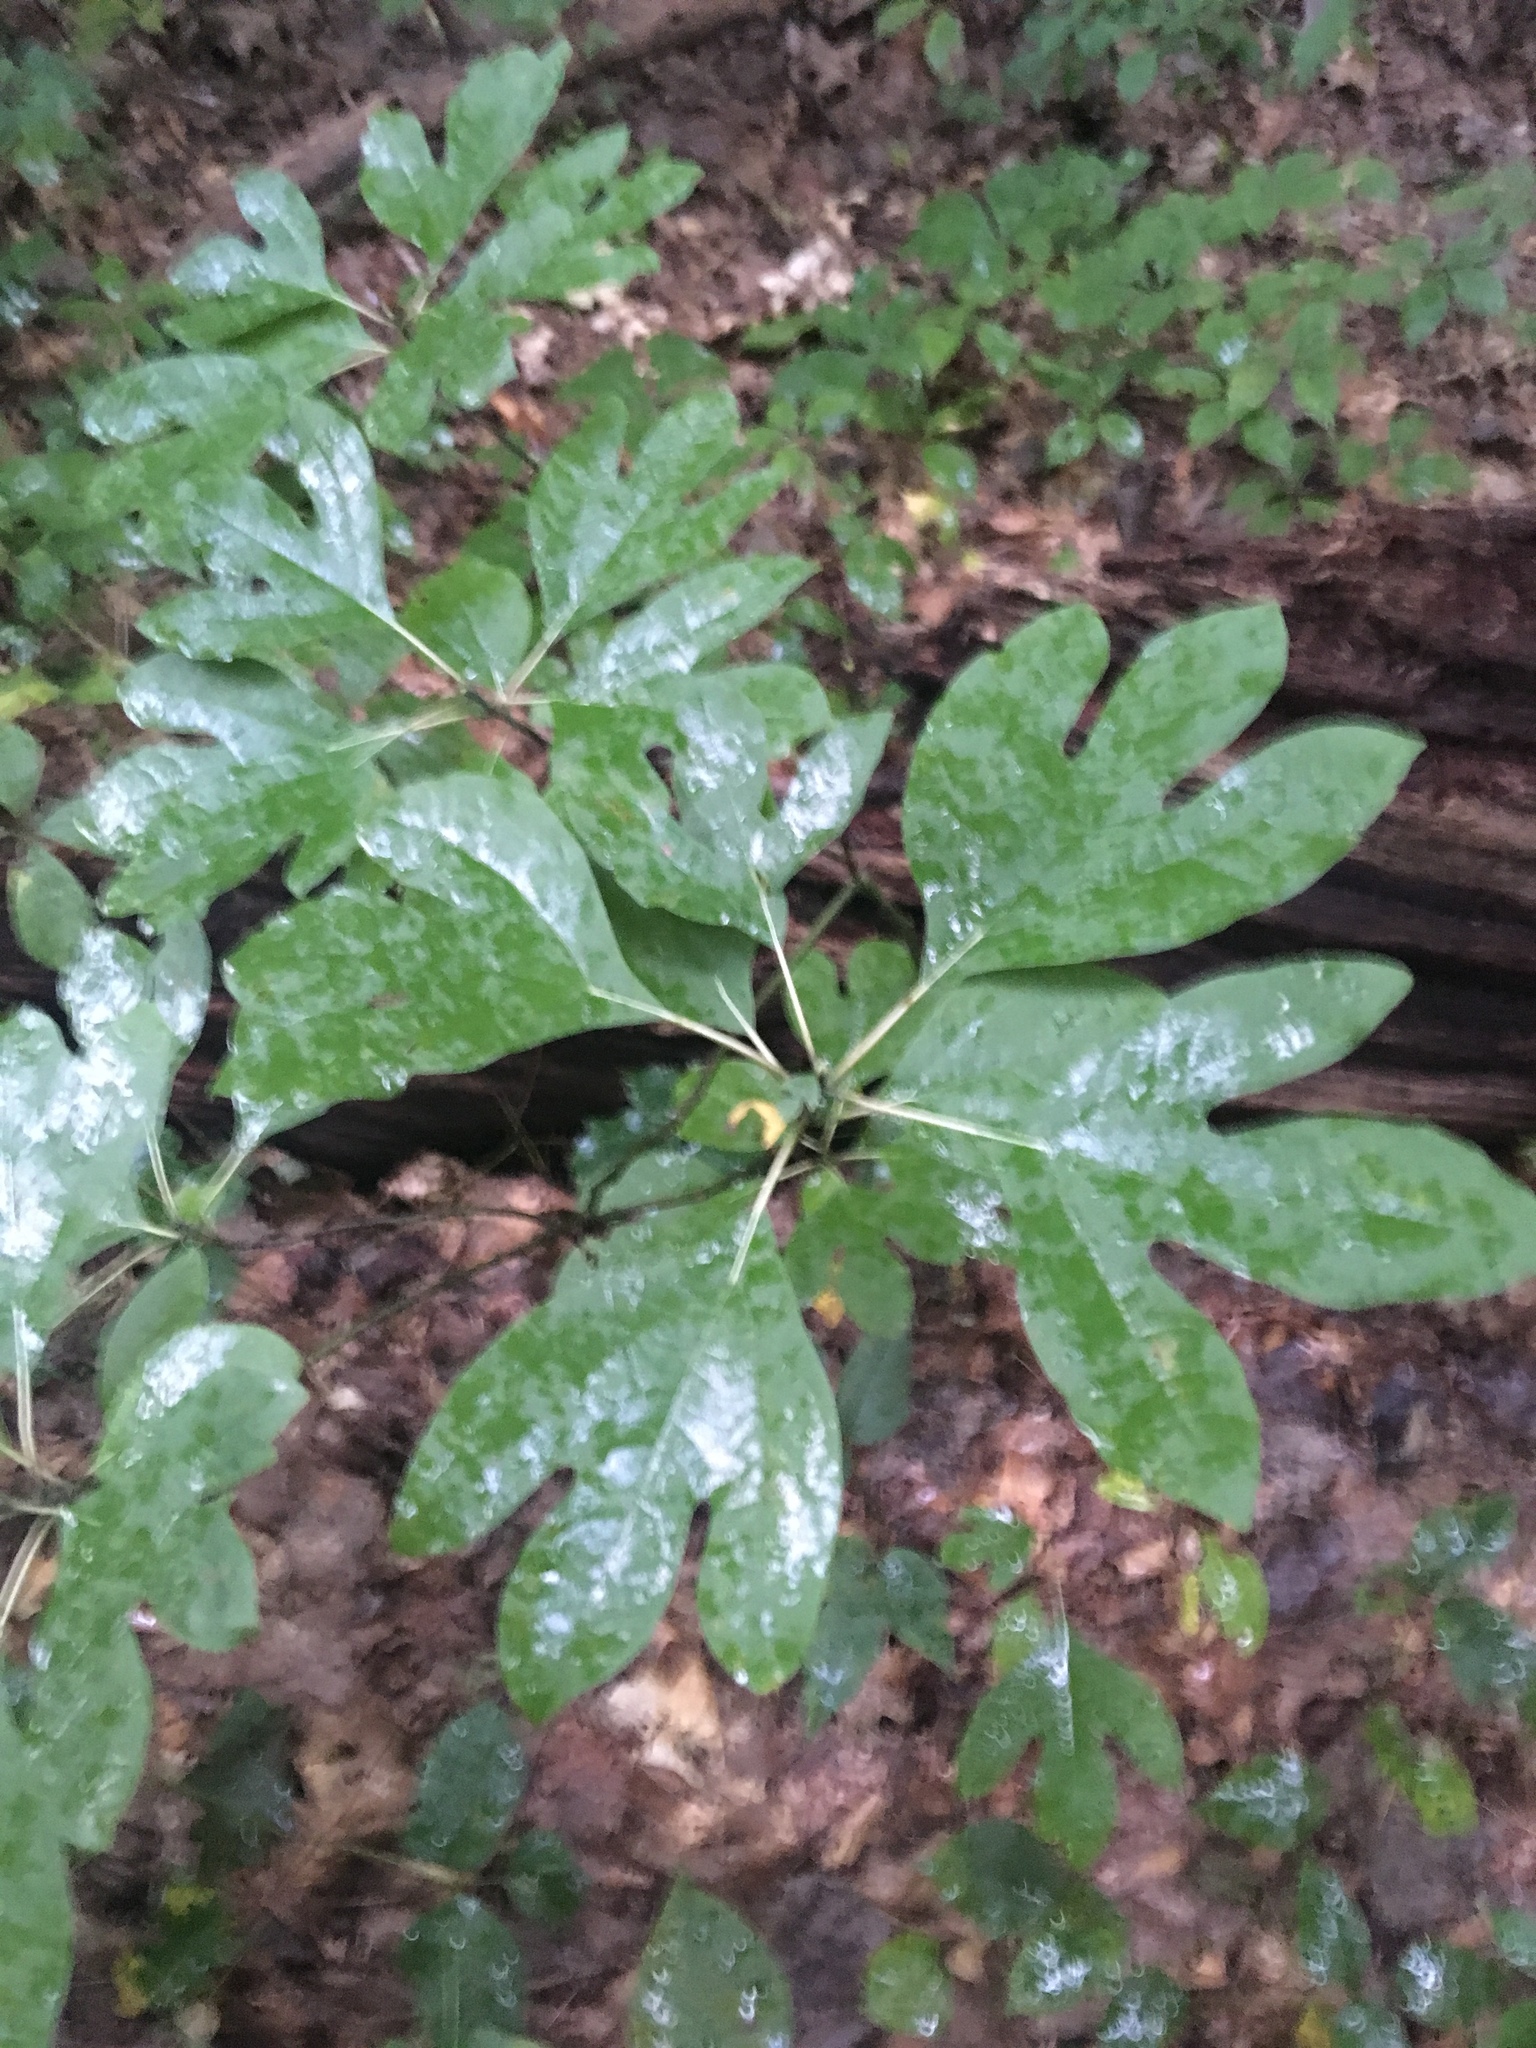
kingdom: Plantae
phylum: Tracheophyta
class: Magnoliopsida
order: Laurales
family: Lauraceae
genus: Sassafras
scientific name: Sassafras albidum
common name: Sassafras
